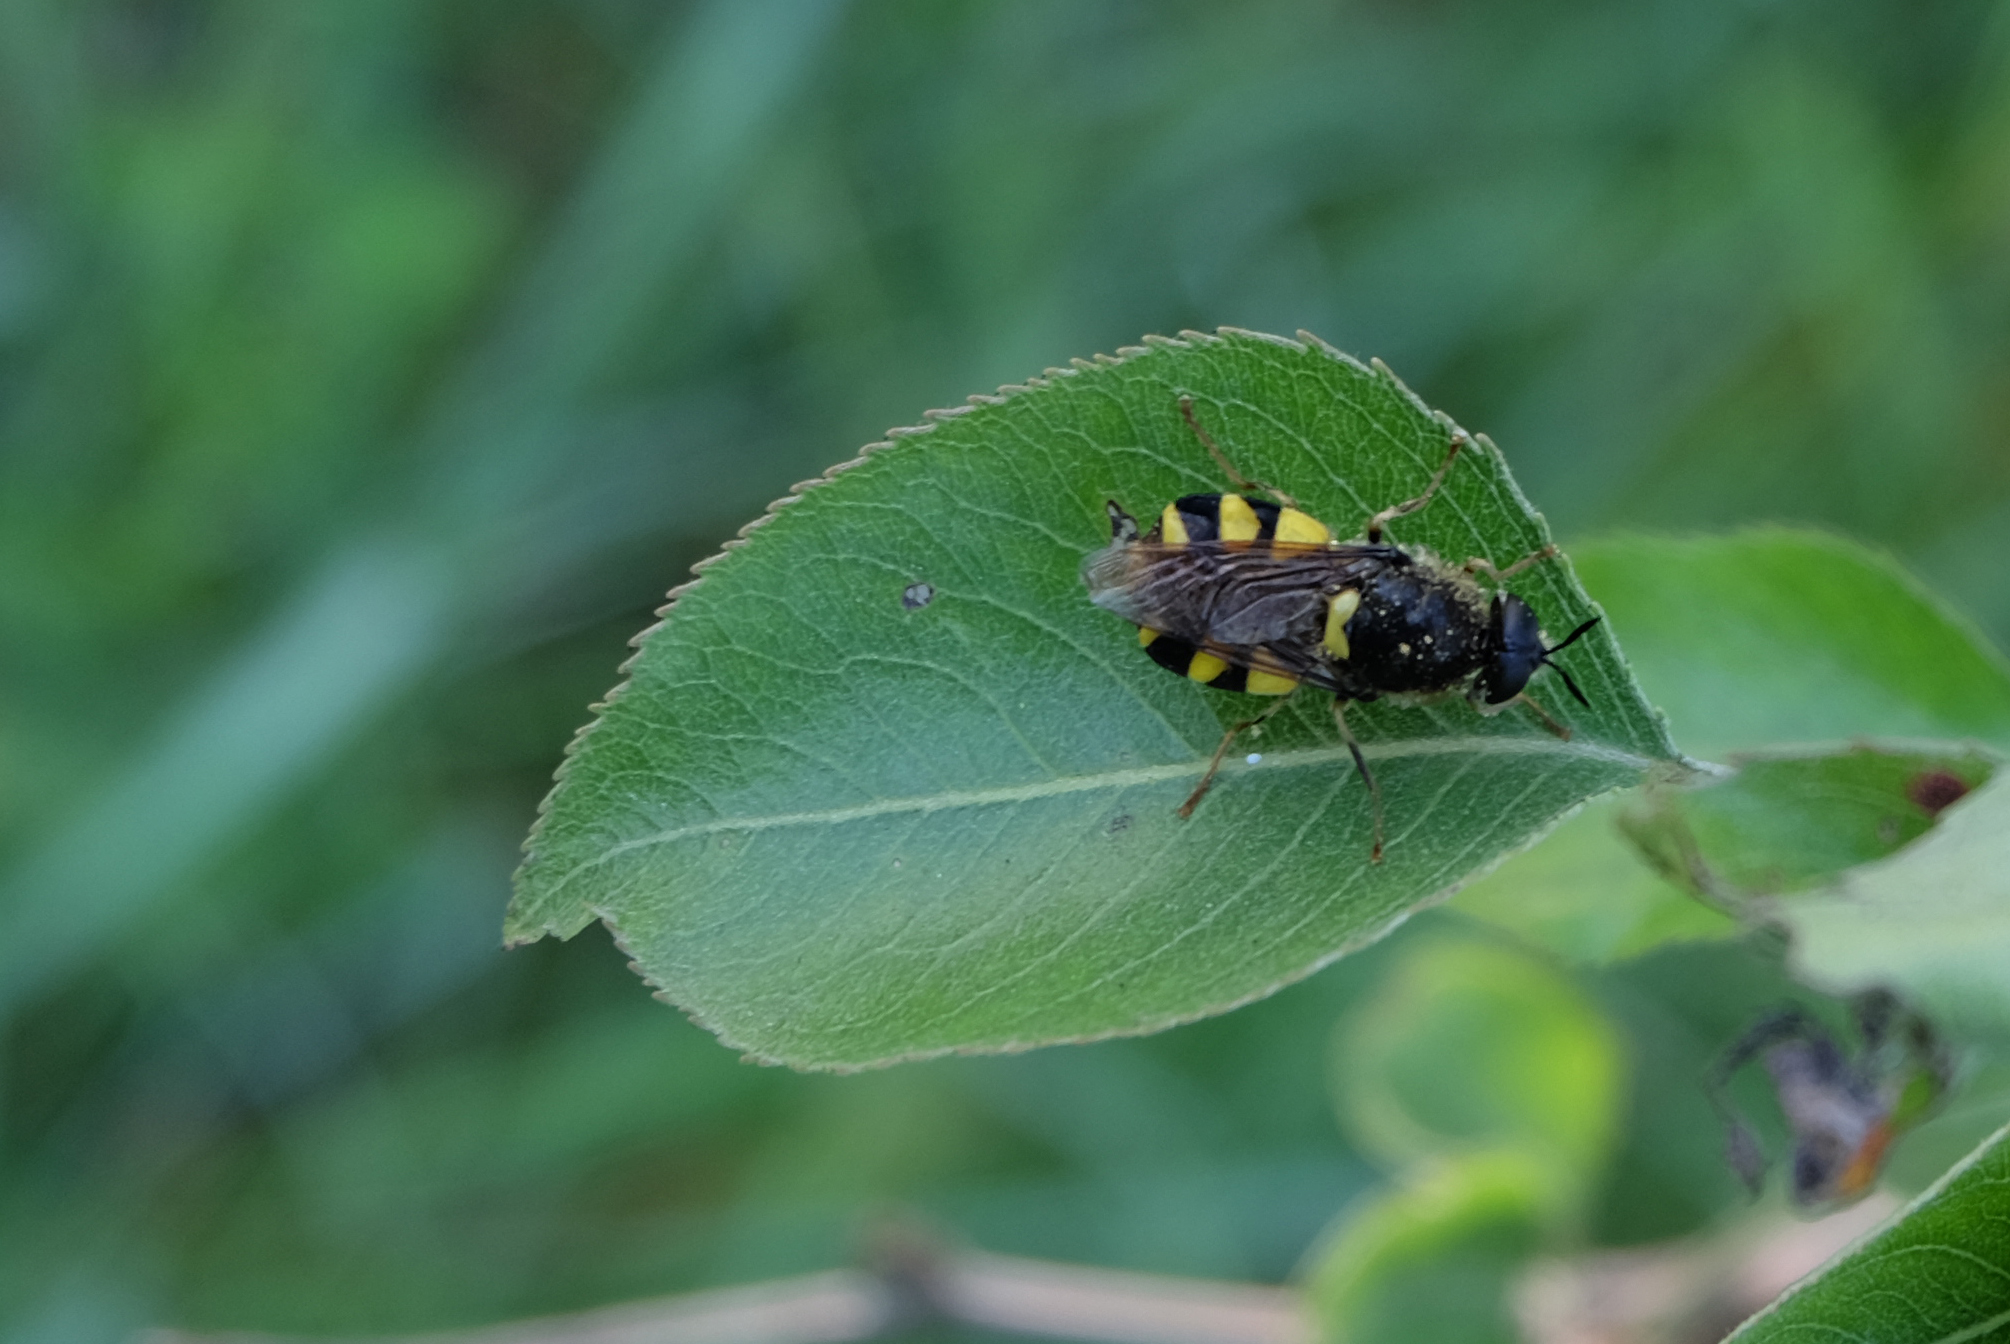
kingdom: Animalia
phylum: Arthropoda
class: Insecta
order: Diptera
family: Stratiomyidae
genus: Stratiomys
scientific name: Stratiomys chamaeleon
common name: Clubbed general
